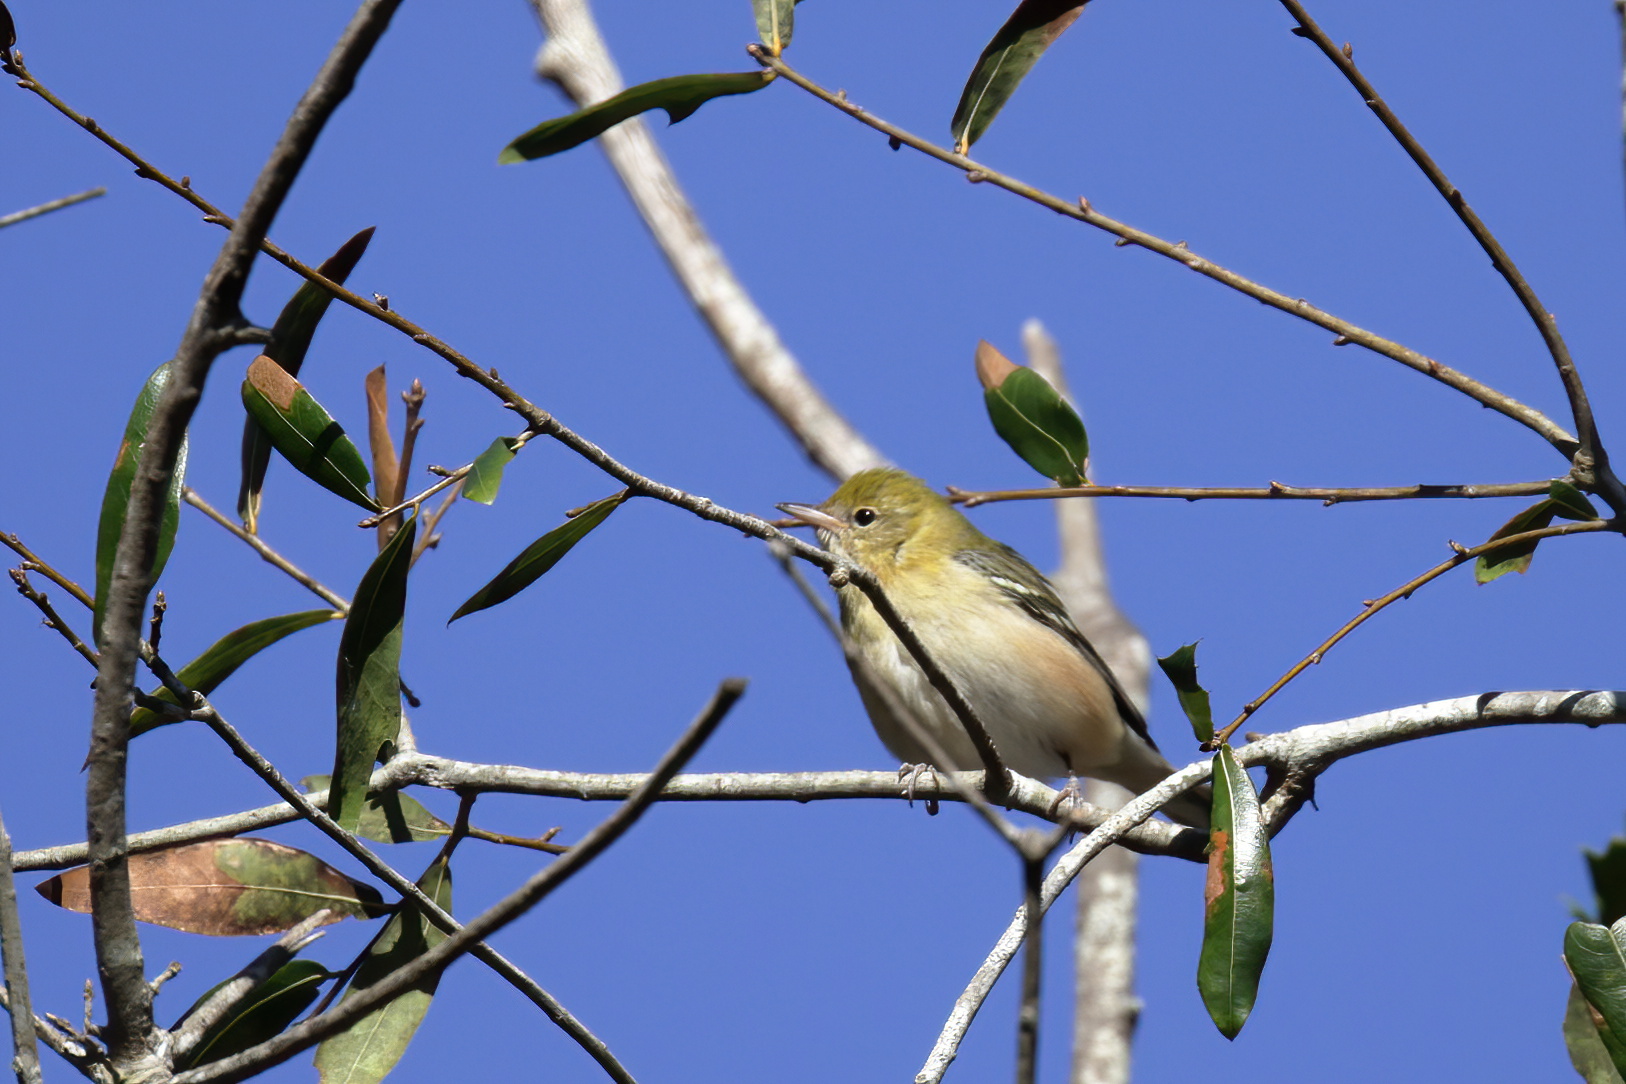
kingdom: Animalia
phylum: Chordata
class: Aves
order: Passeriformes
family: Parulidae
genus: Setophaga
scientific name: Setophaga castanea
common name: Bay-breasted warbler
